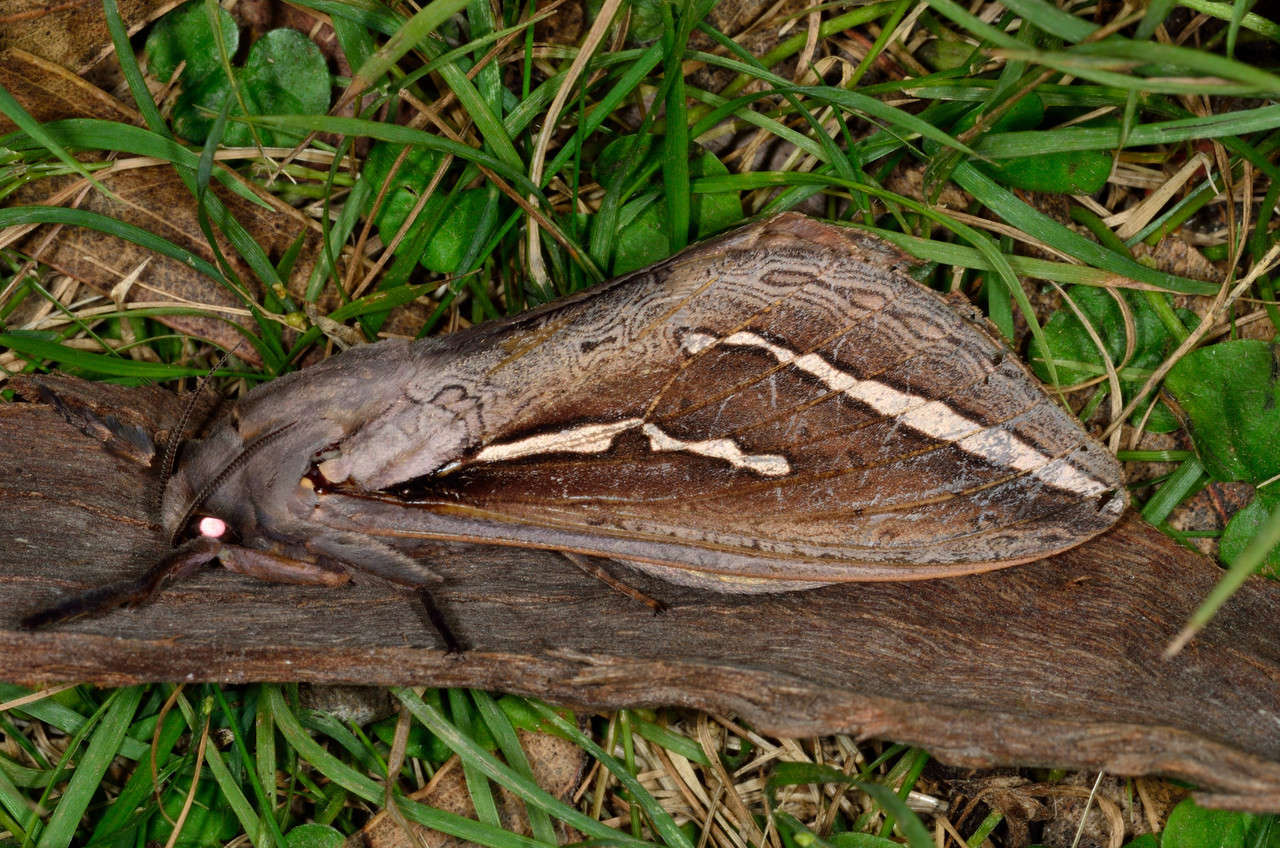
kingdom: Animalia
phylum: Arthropoda
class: Insecta
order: Lepidoptera
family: Hepialidae
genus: Abantiades
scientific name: Abantiades labyrinthicus
